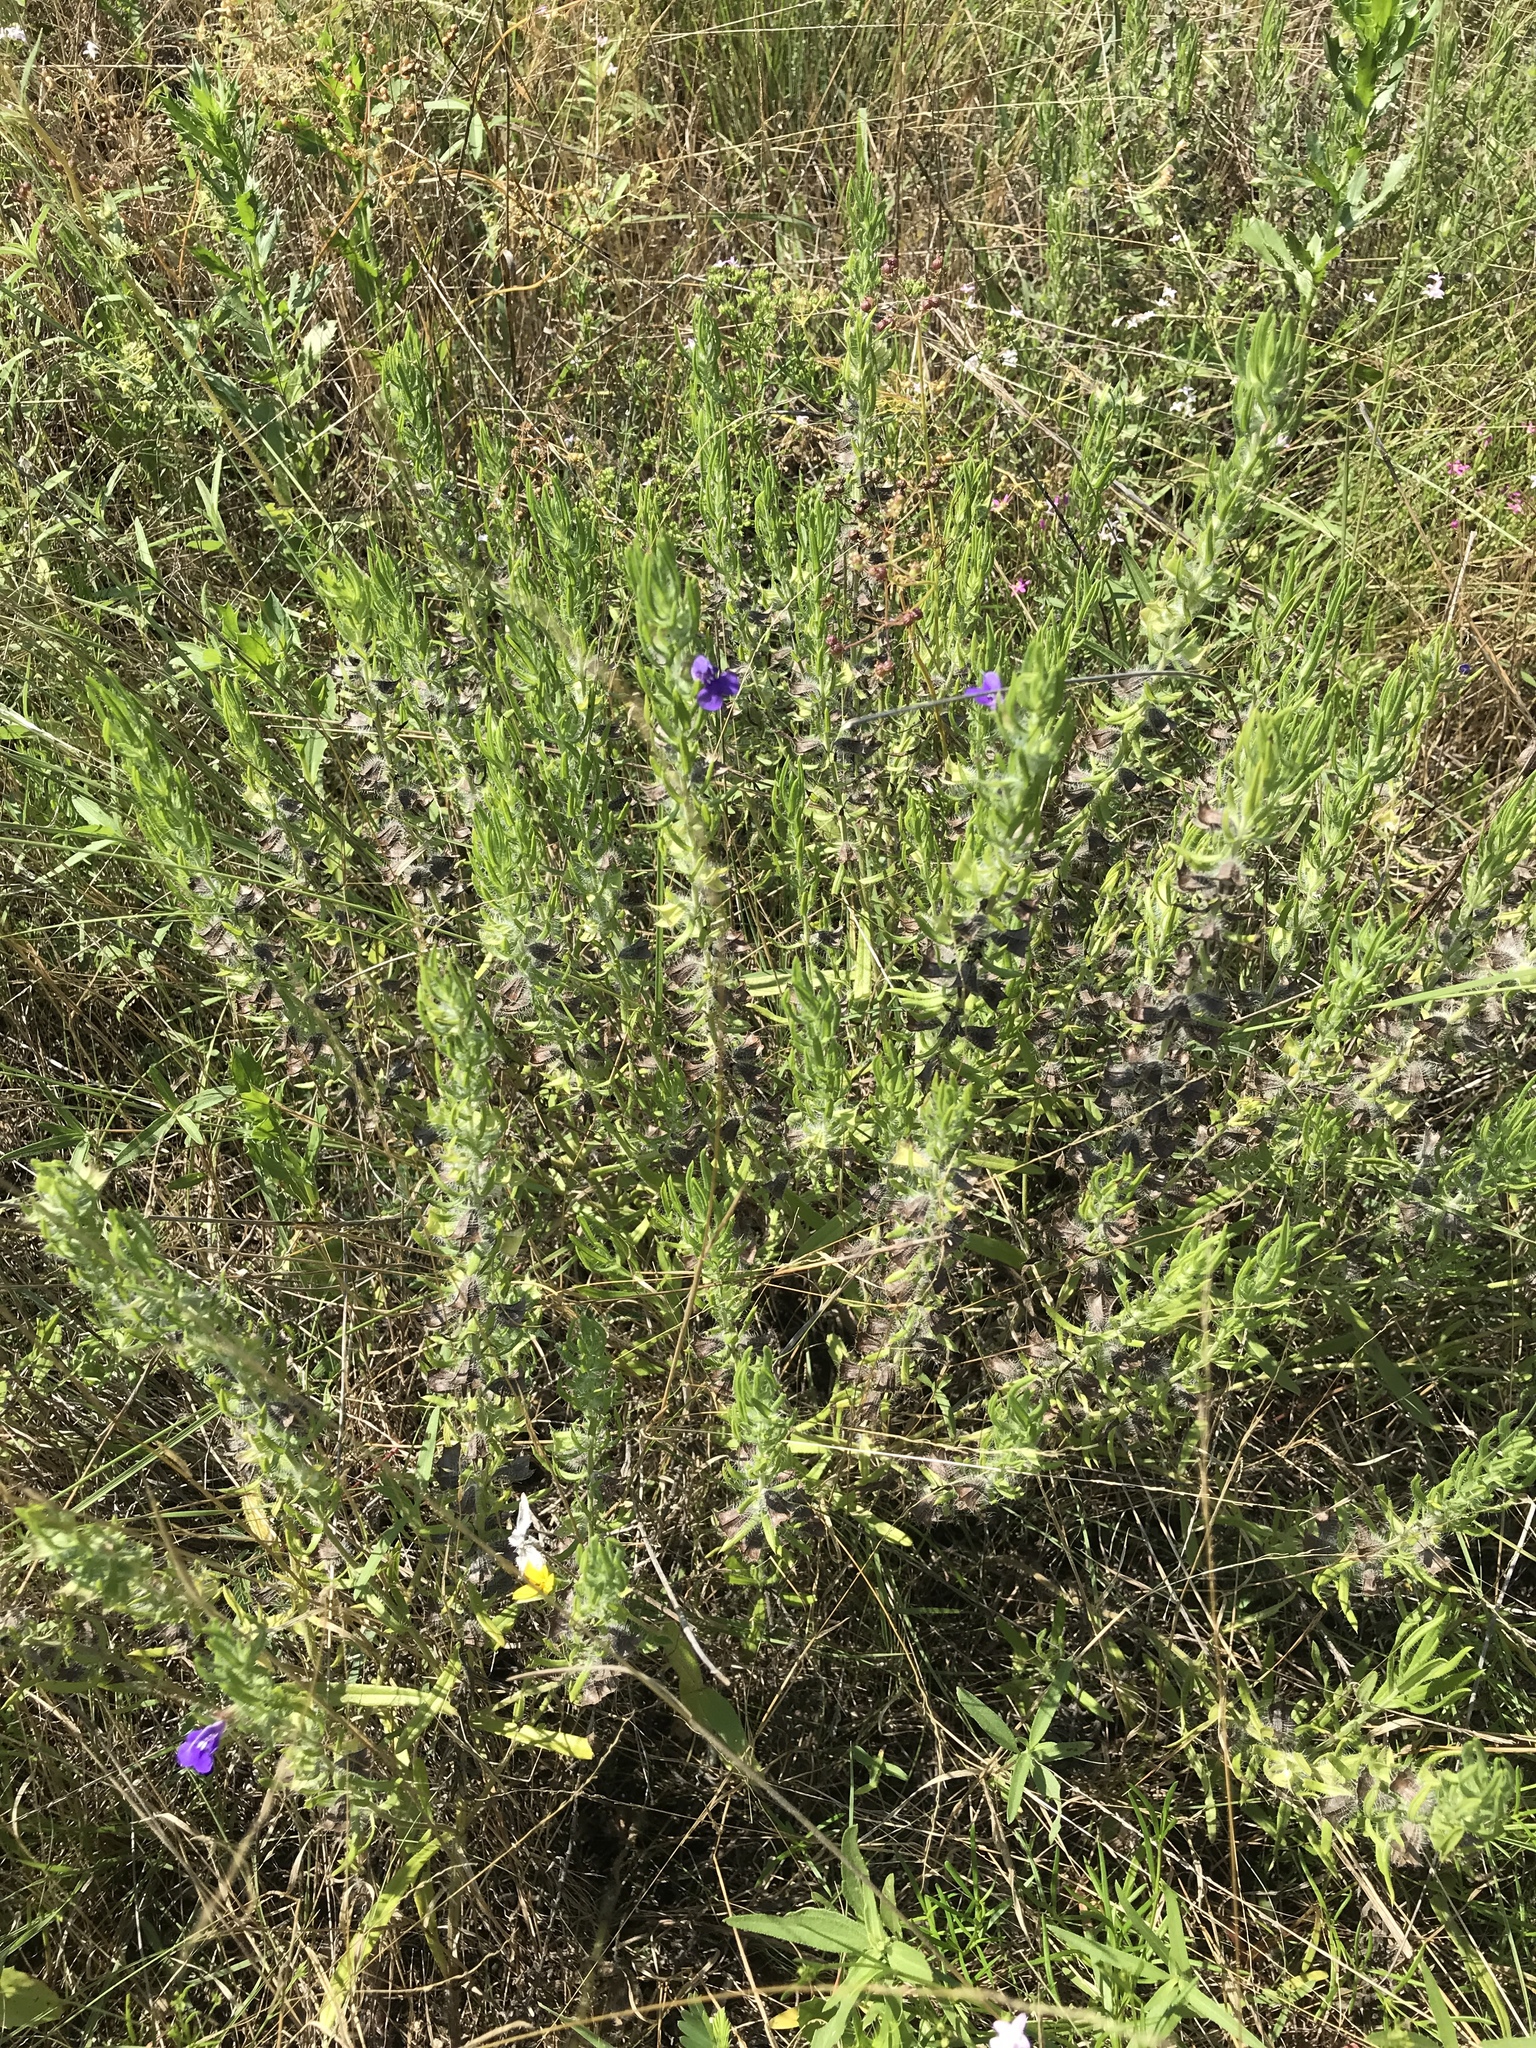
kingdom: Plantae
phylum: Tracheophyta
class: Magnoliopsida
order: Lamiales
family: Lamiaceae
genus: Salvia
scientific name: Salvia texana
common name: Texas sage
